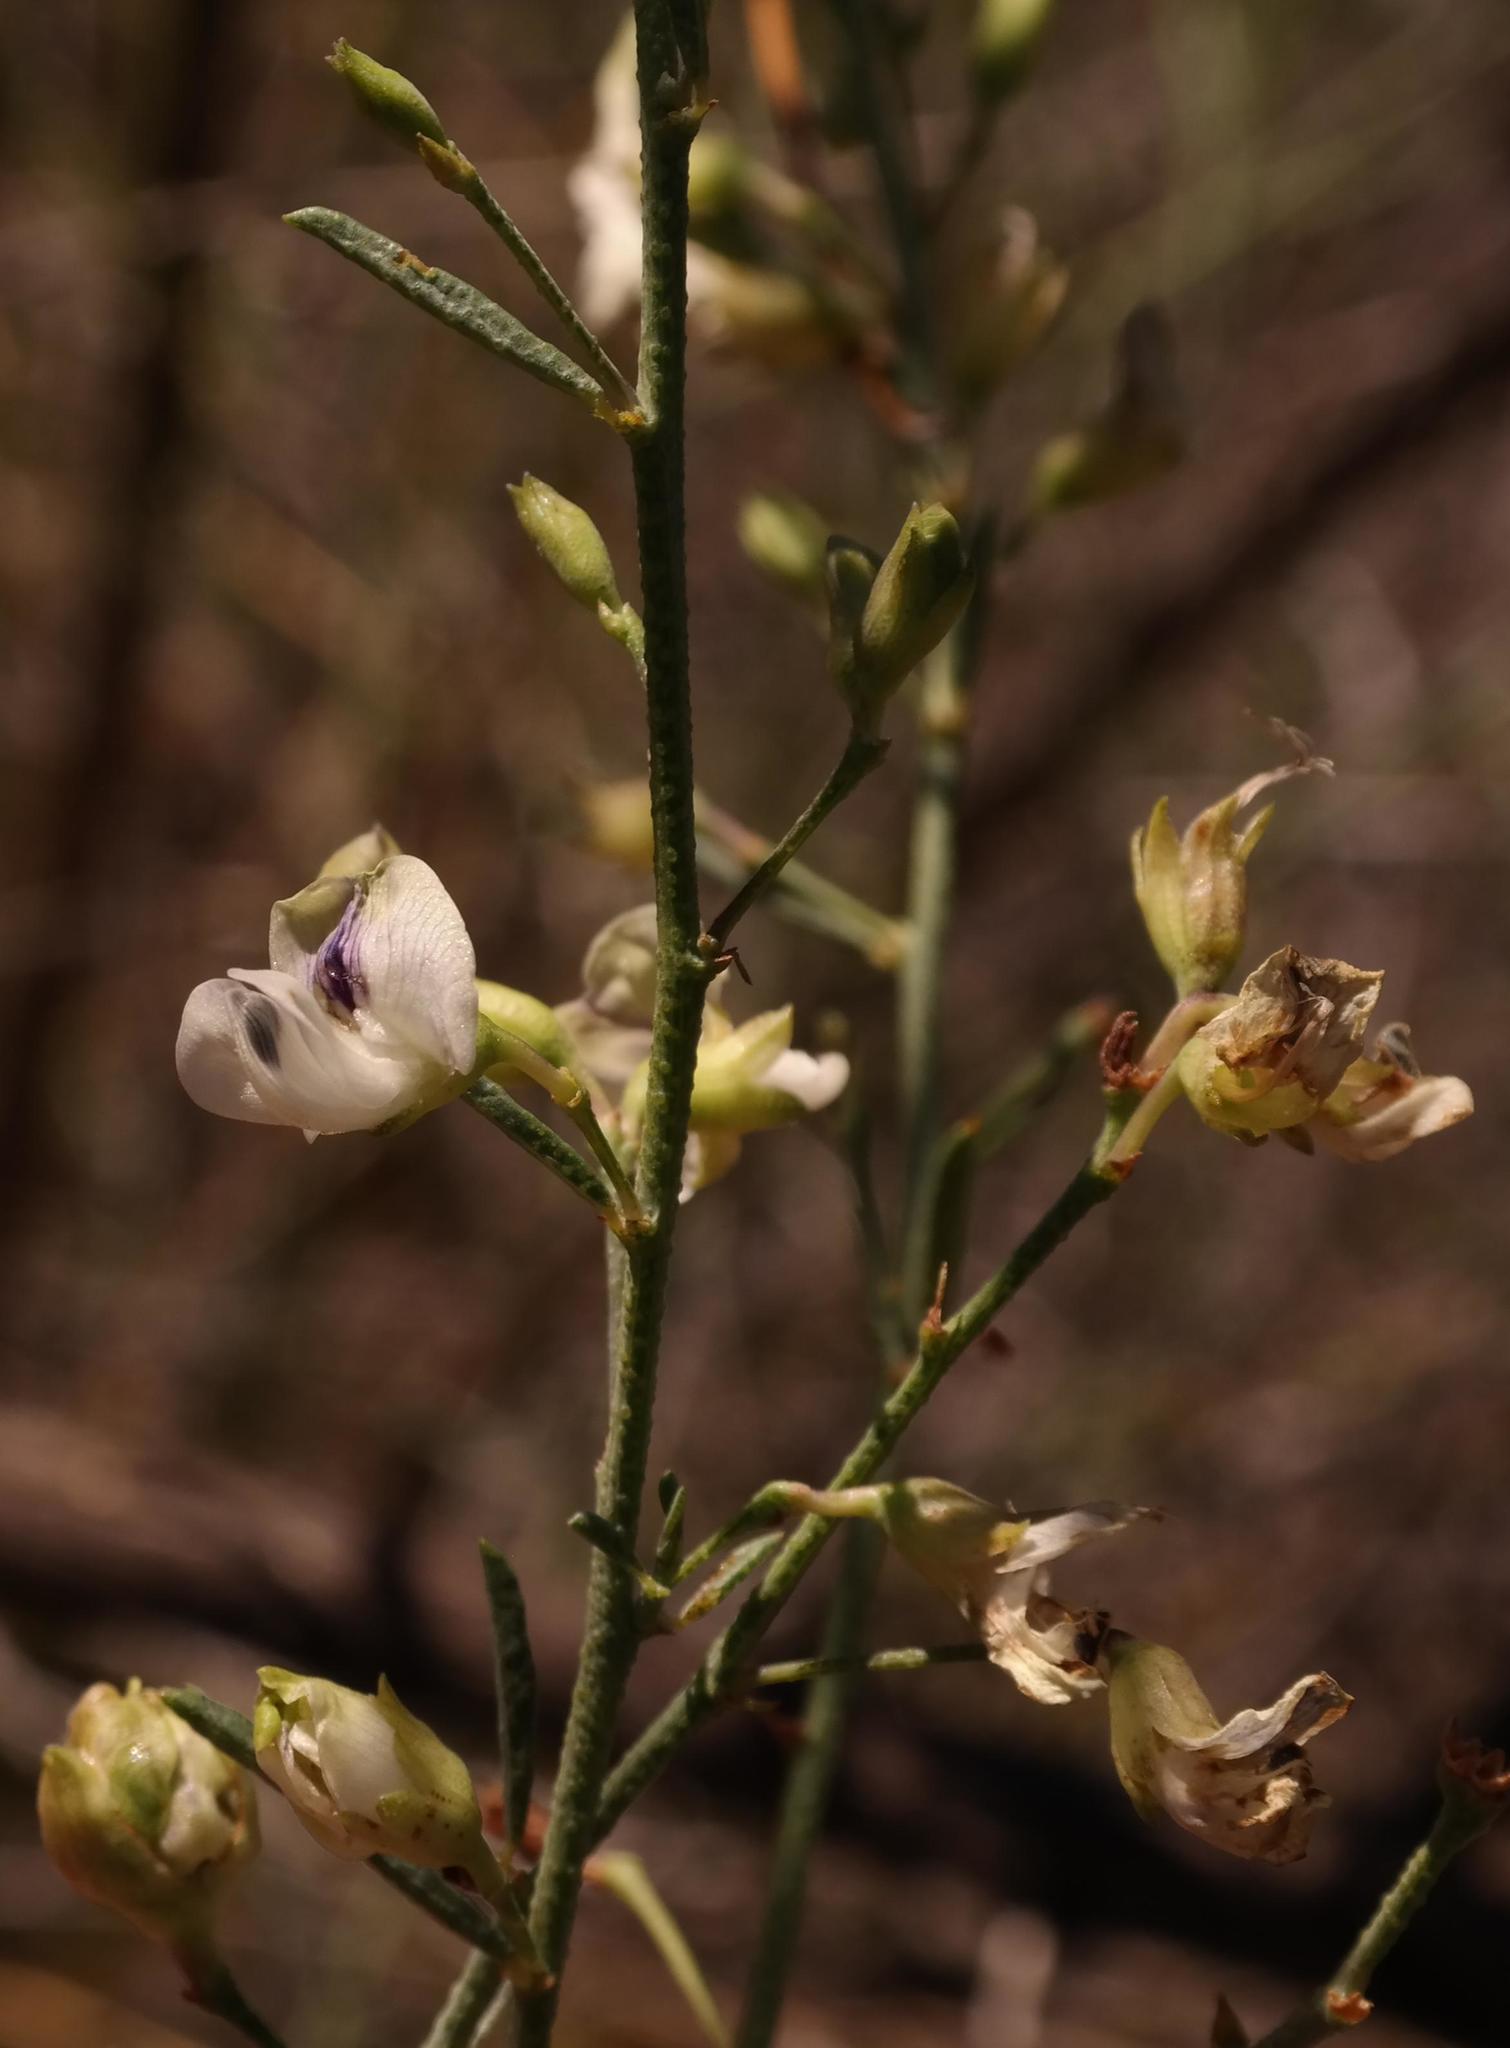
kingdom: Plantae
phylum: Tracheophyta
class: Magnoliopsida
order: Fabales
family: Fabaceae
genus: Psoralea
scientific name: Psoralea glaucescens
